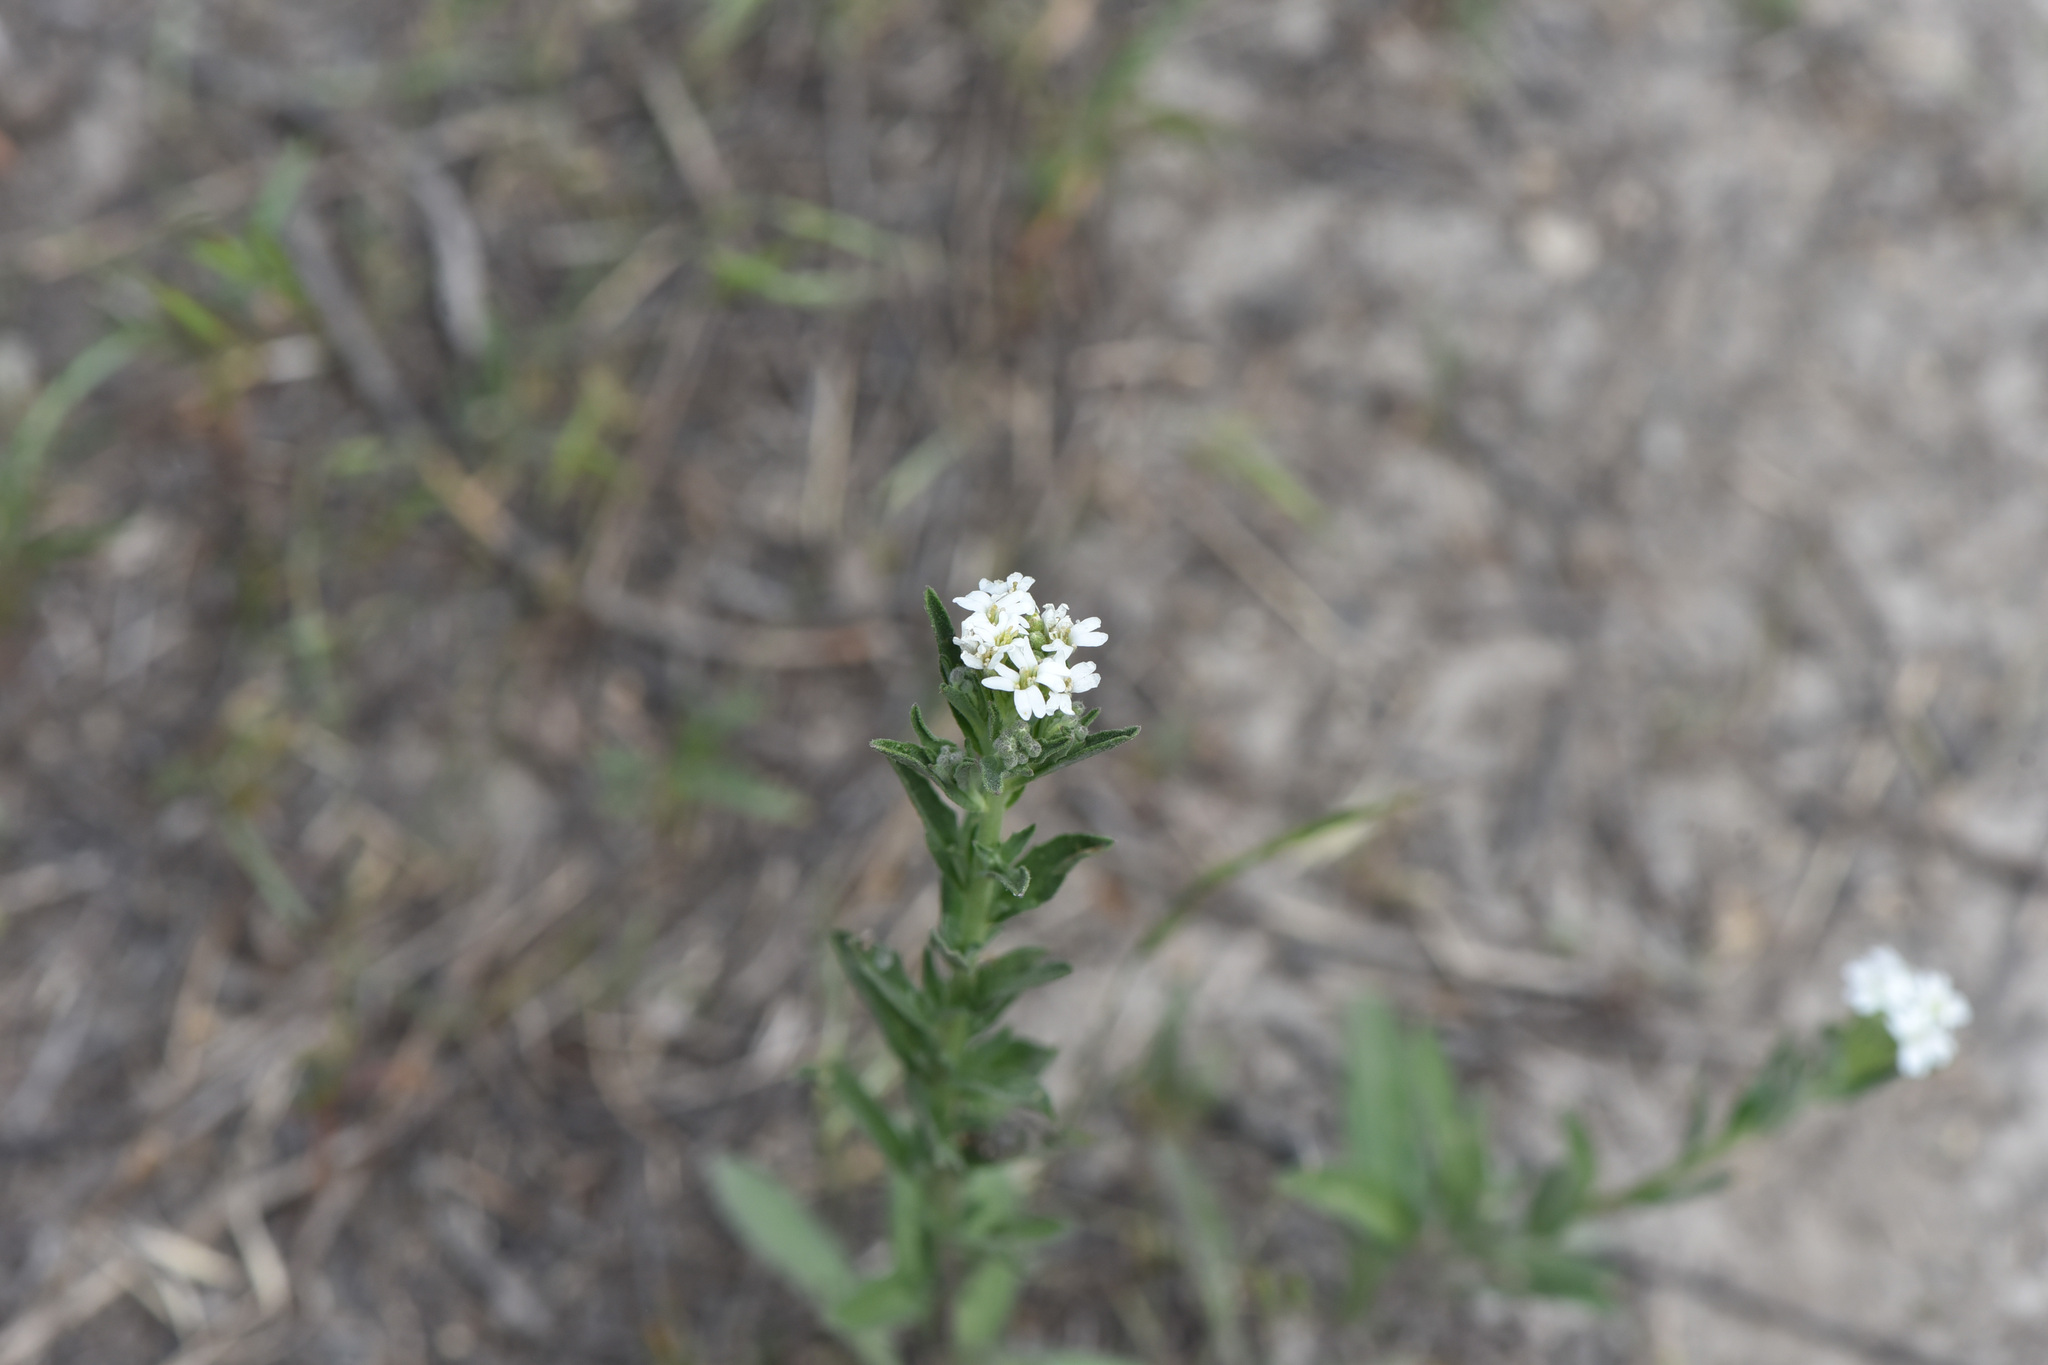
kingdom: Plantae
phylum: Tracheophyta
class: Magnoliopsida
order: Brassicales
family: Brassicaceae
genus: Berteroa
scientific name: Berteroa incana
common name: Hoary alison
